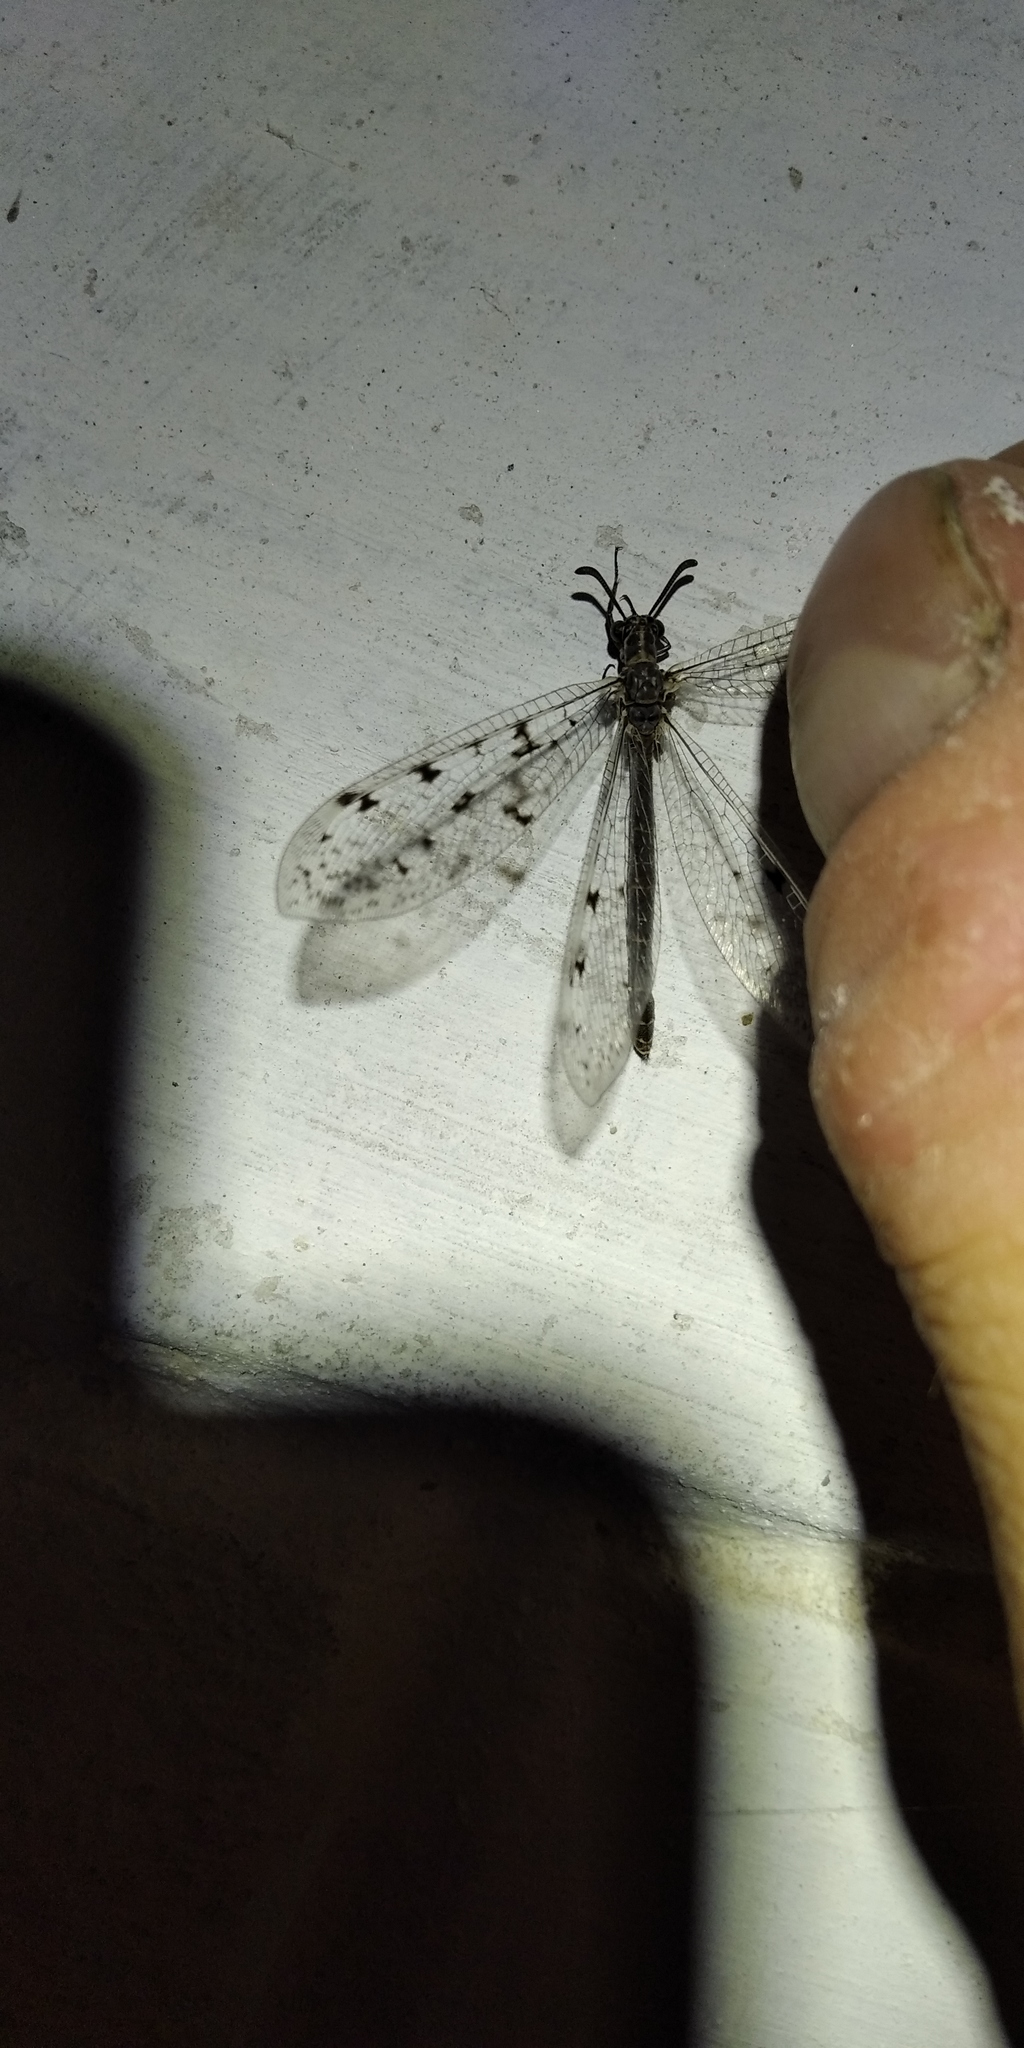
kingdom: Animalia
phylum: Arthropoda
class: Insecta
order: Neuroptera
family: Myrmeleontidae
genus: Euroleon
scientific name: Euroleon nostras
